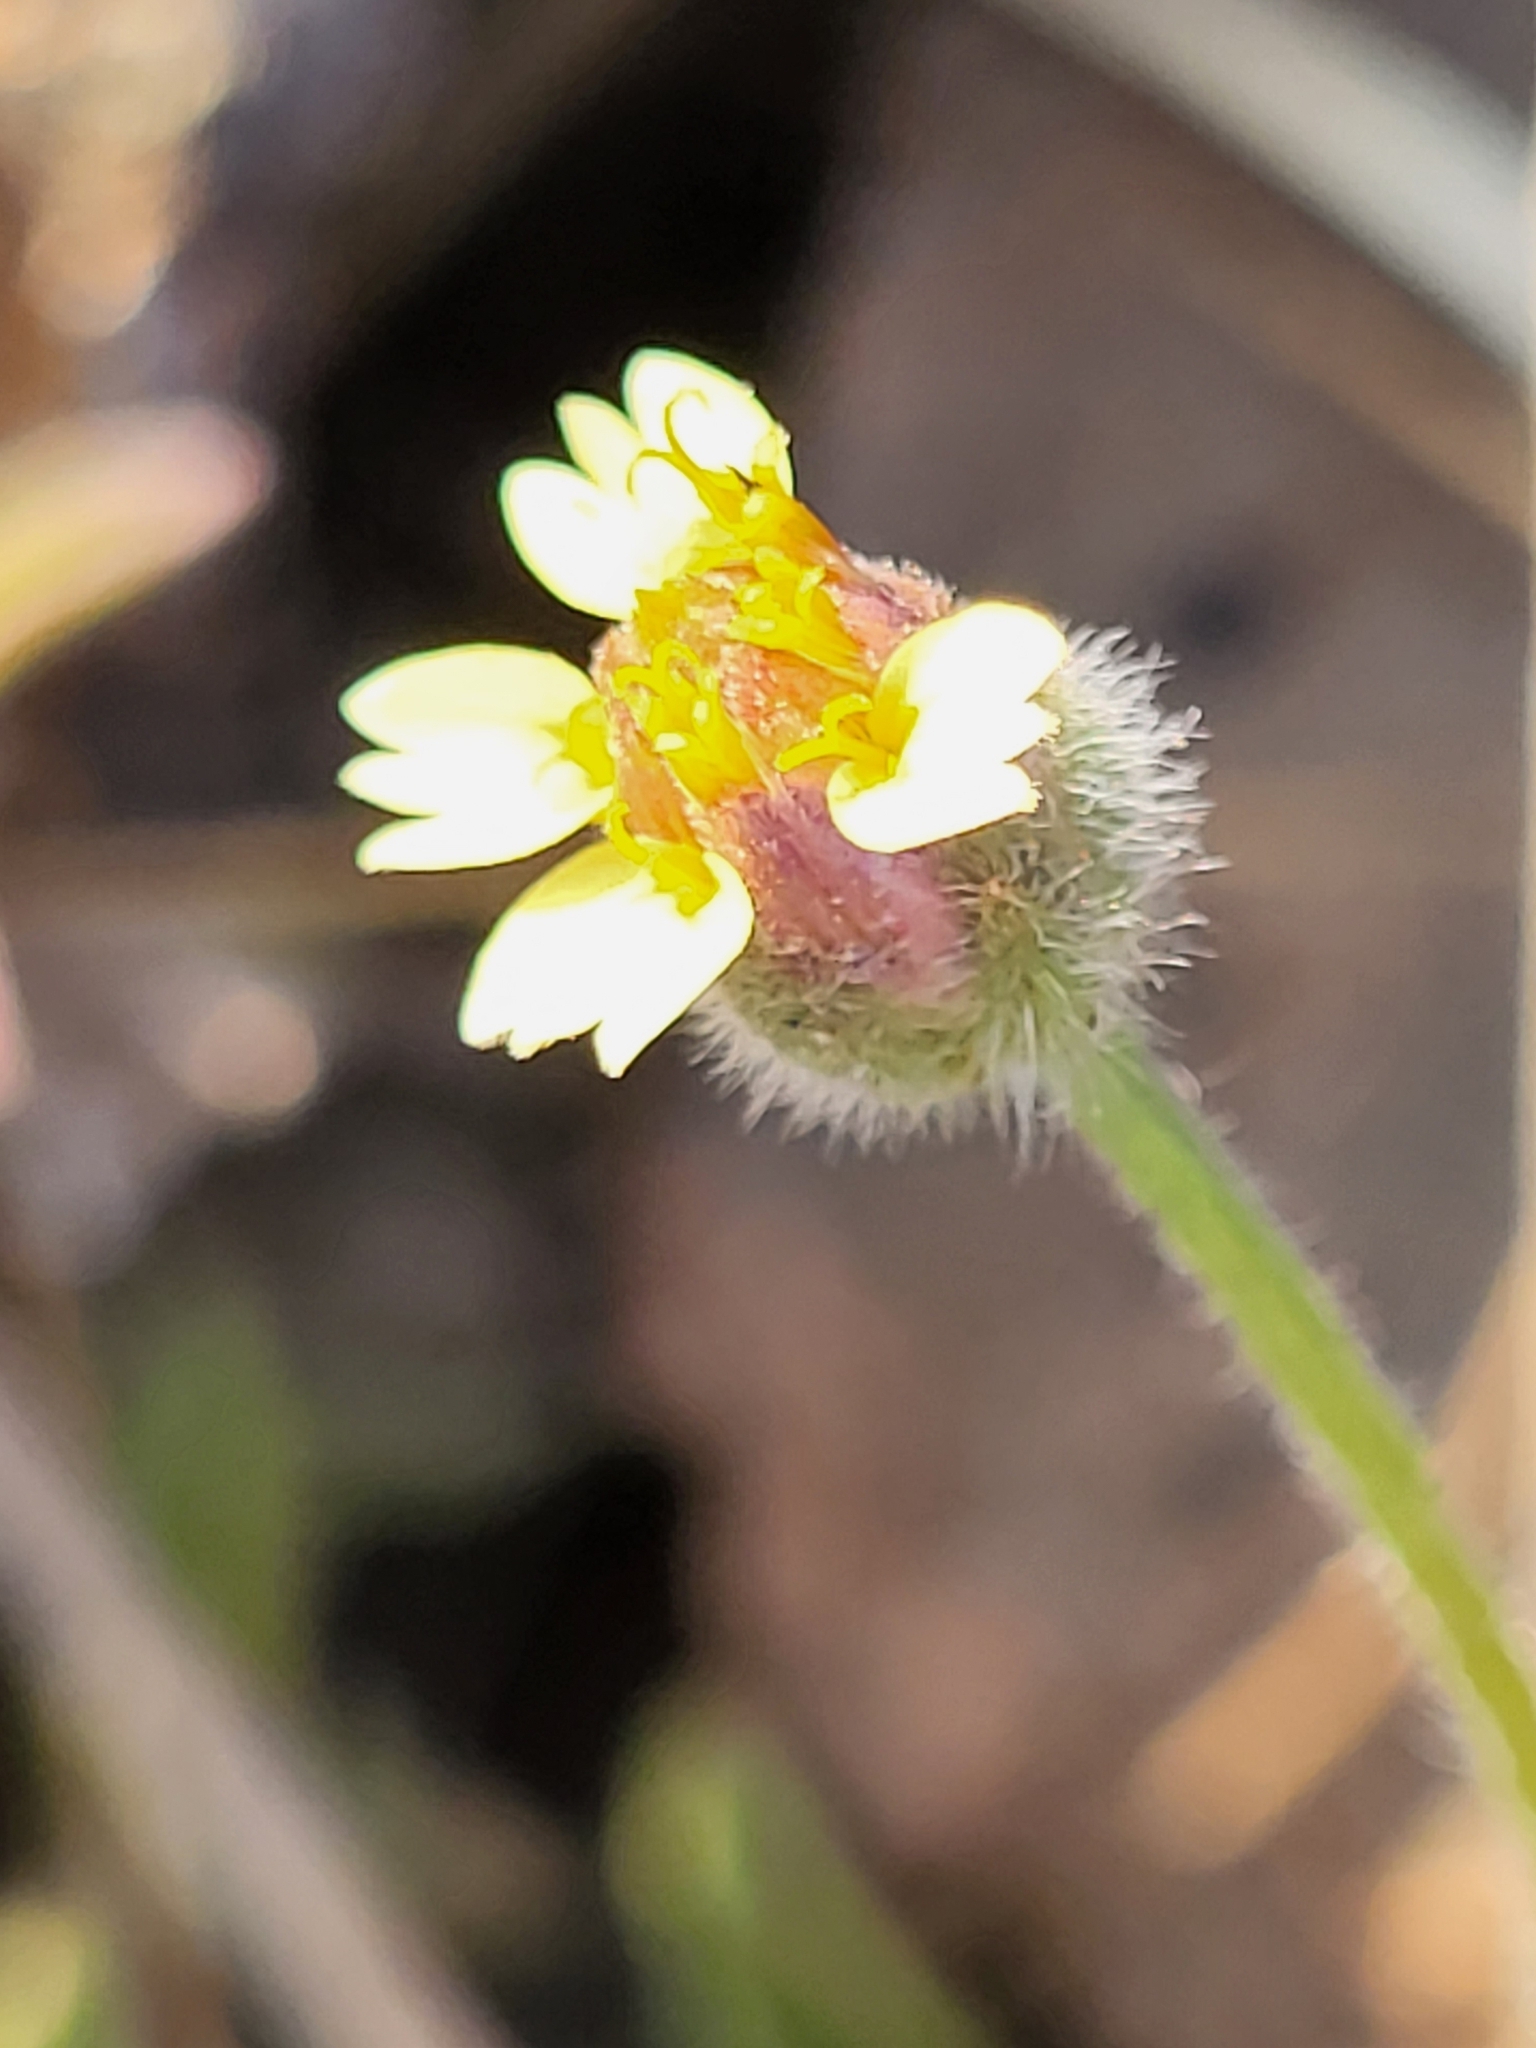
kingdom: Plantae
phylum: Tracheophyta
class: Magnoliopsida
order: Asterales
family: Asteraceae
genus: Tridax
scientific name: Tridax procumbens
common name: Coatbuttons
